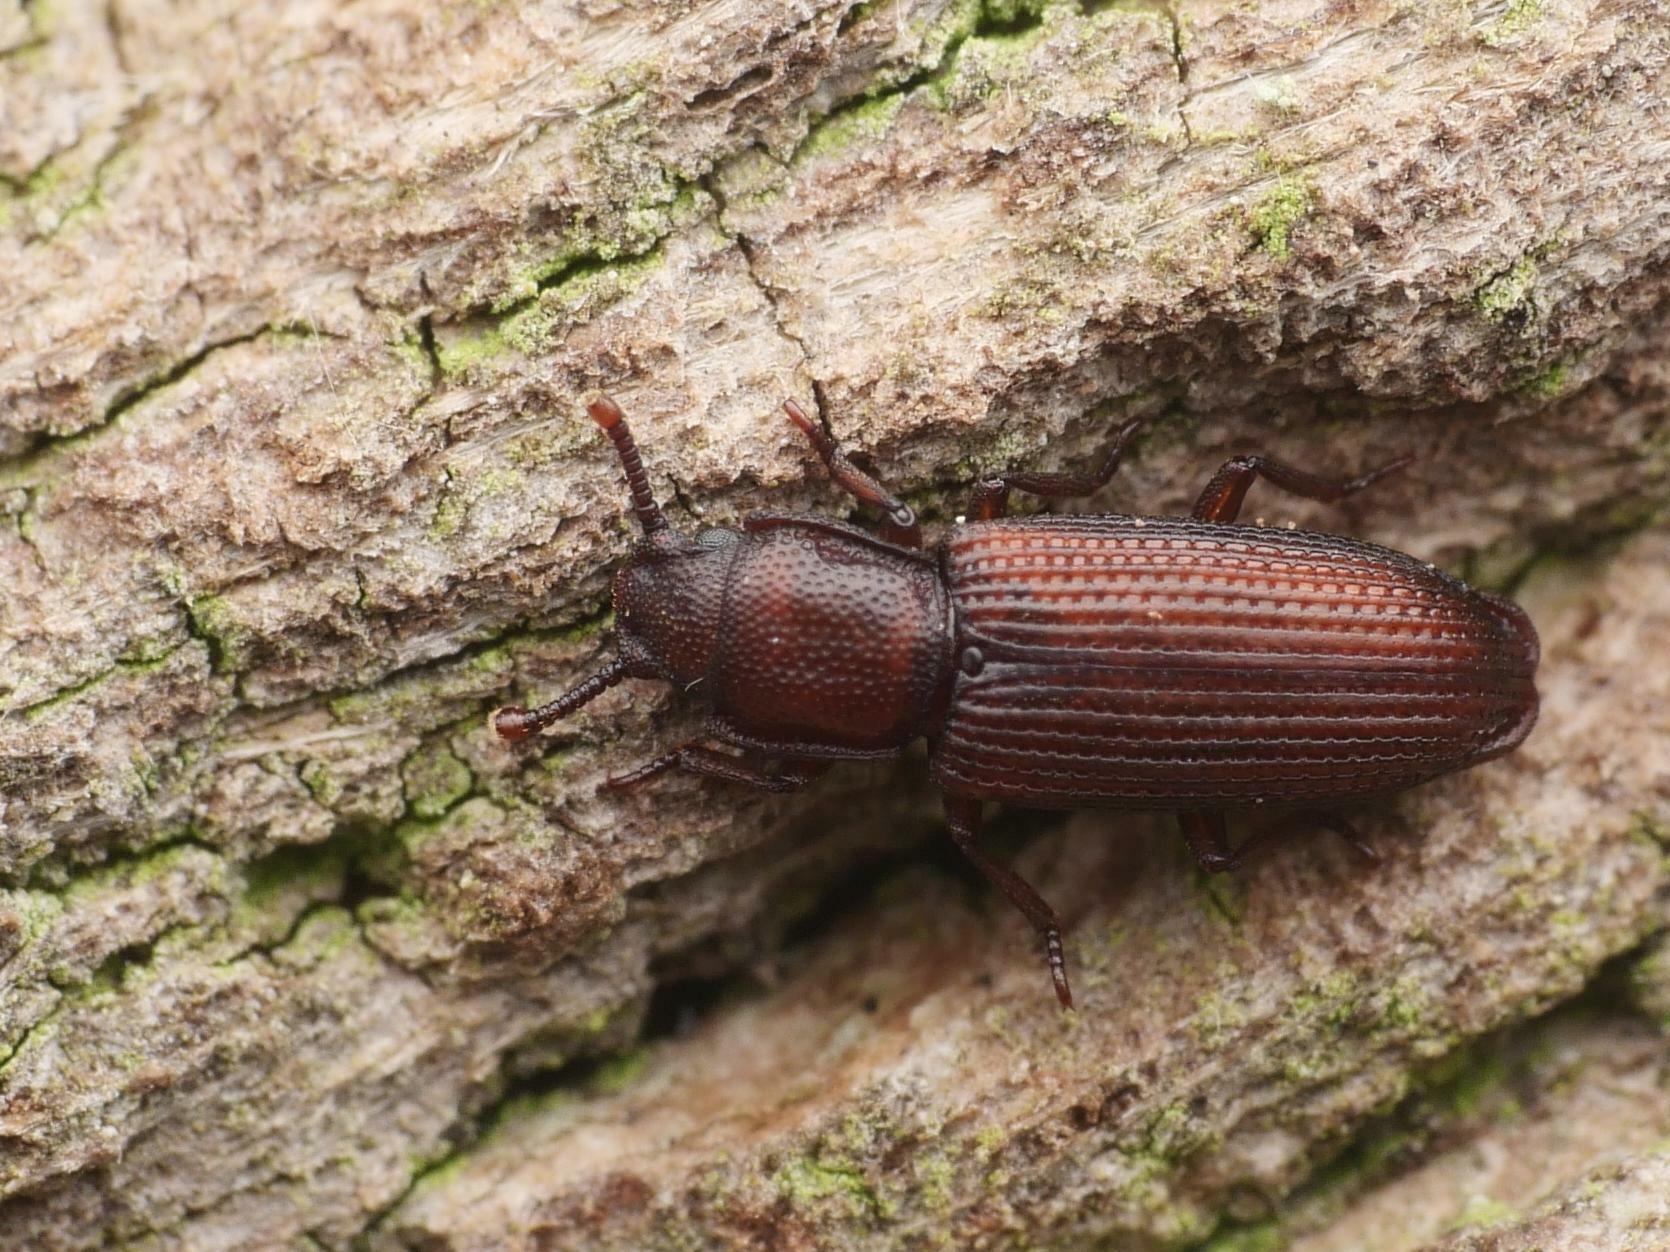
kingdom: Animalia
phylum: Arthropoda
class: Insecta
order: Coleoptera
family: Zopheridae
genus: Pycnomerus
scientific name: Pycnomerus terebrans
